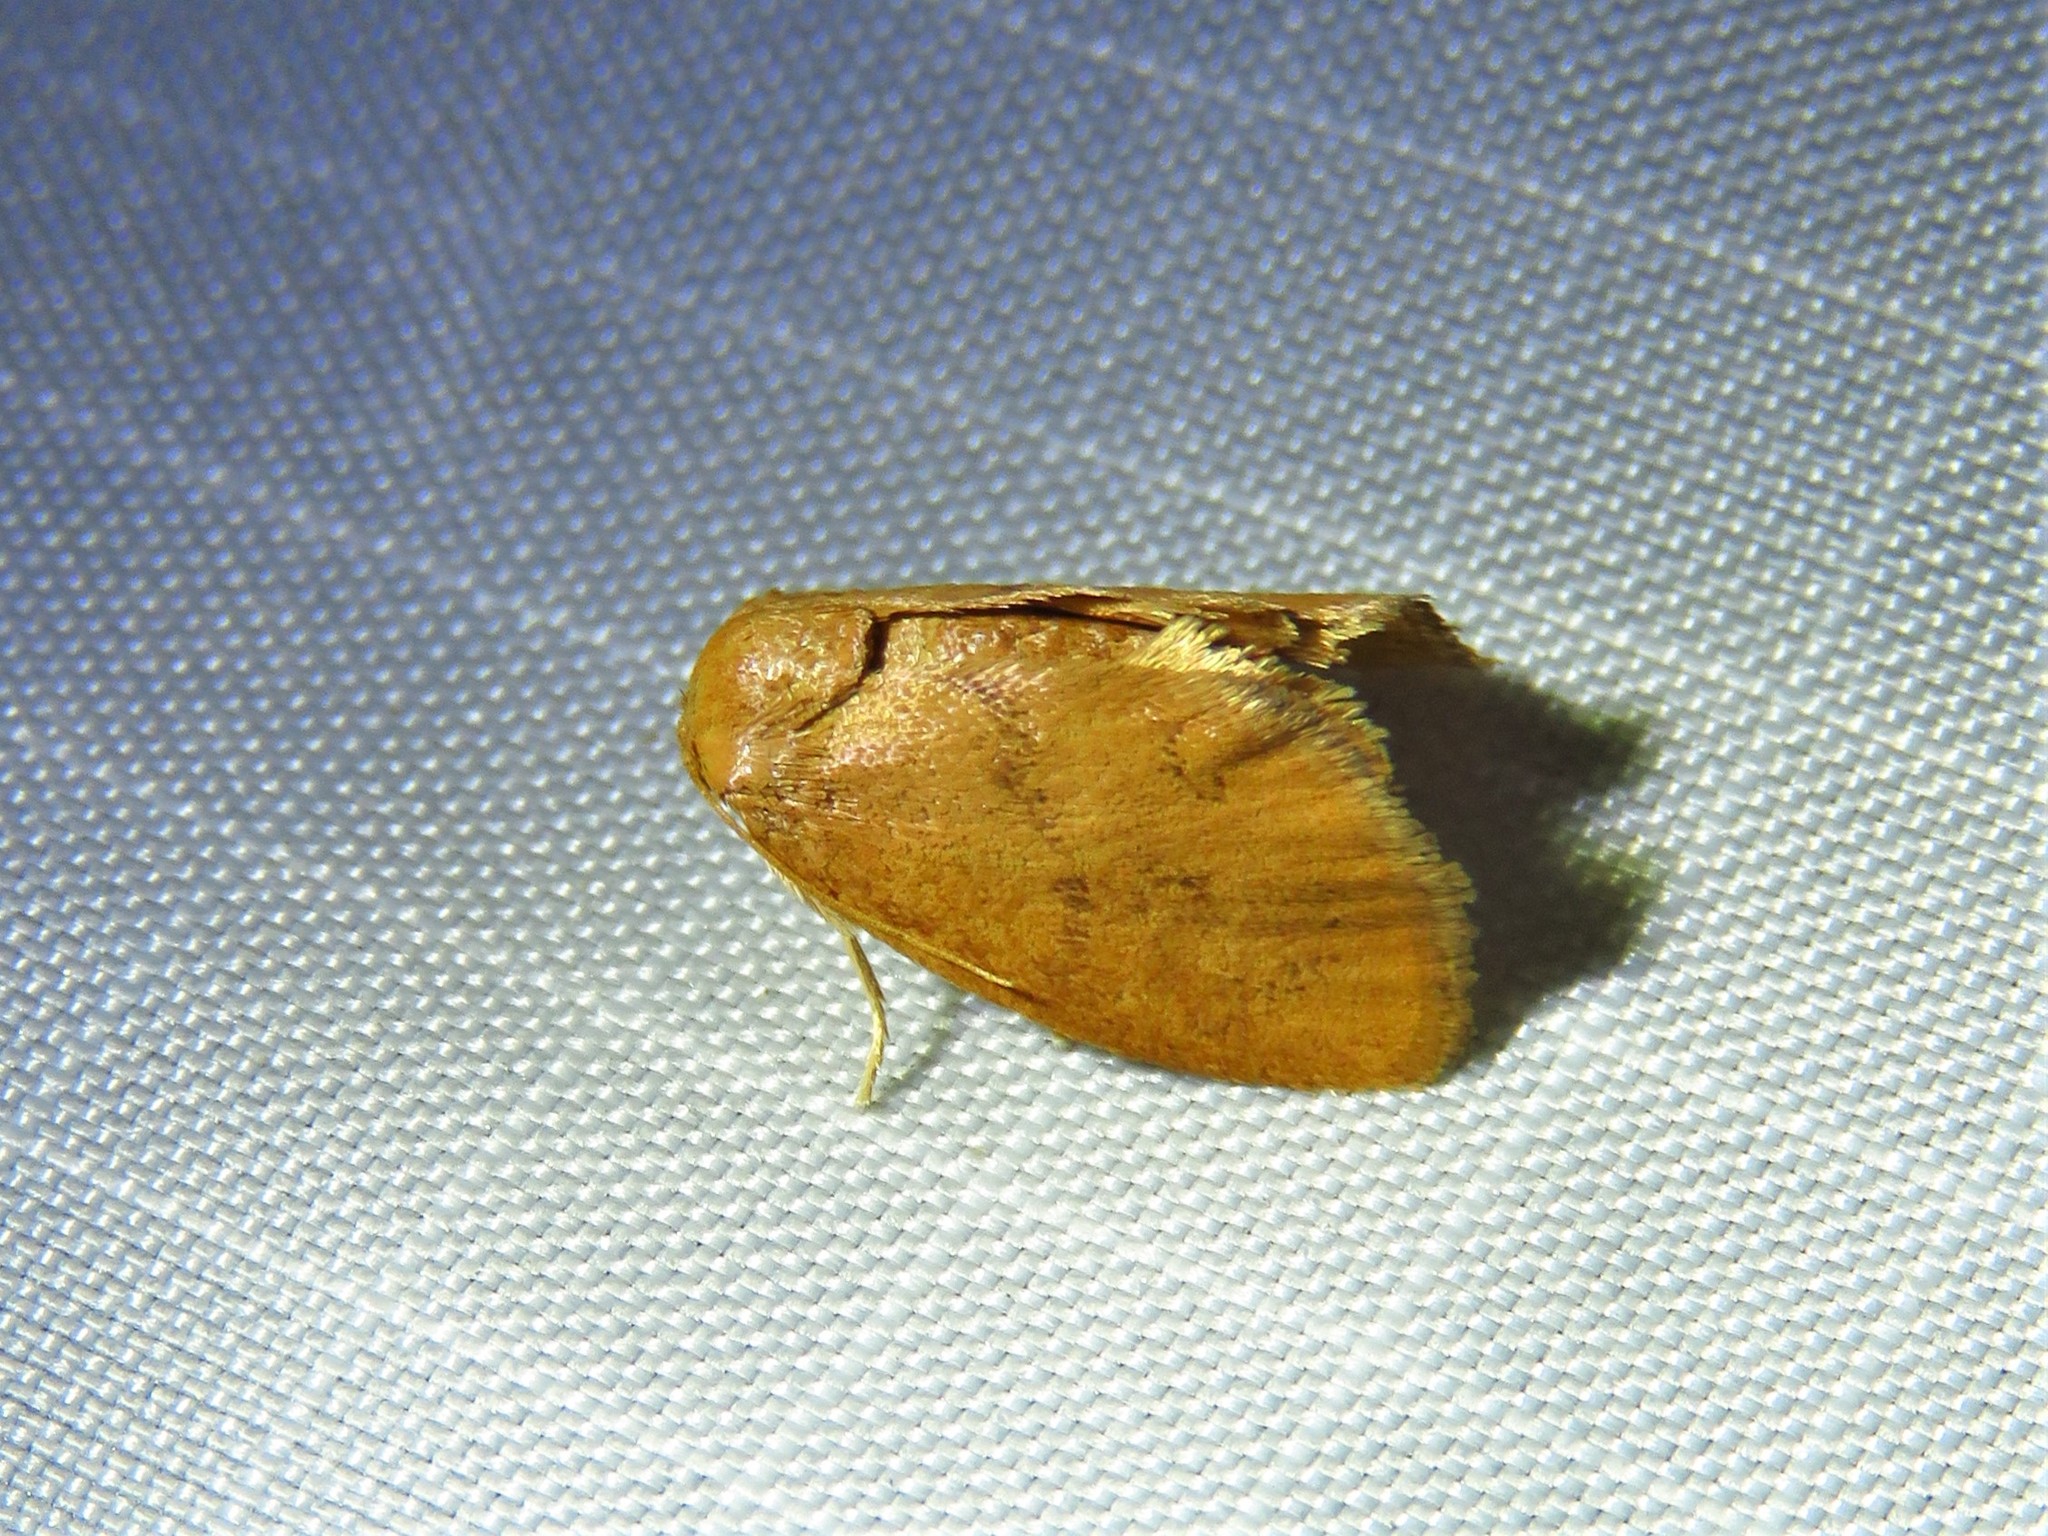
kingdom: Animalia
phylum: Arthropoda
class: Insecta
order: Lepidoptera
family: Limacodidae
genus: Heterogenea
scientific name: Heterogenea shurtleffi
